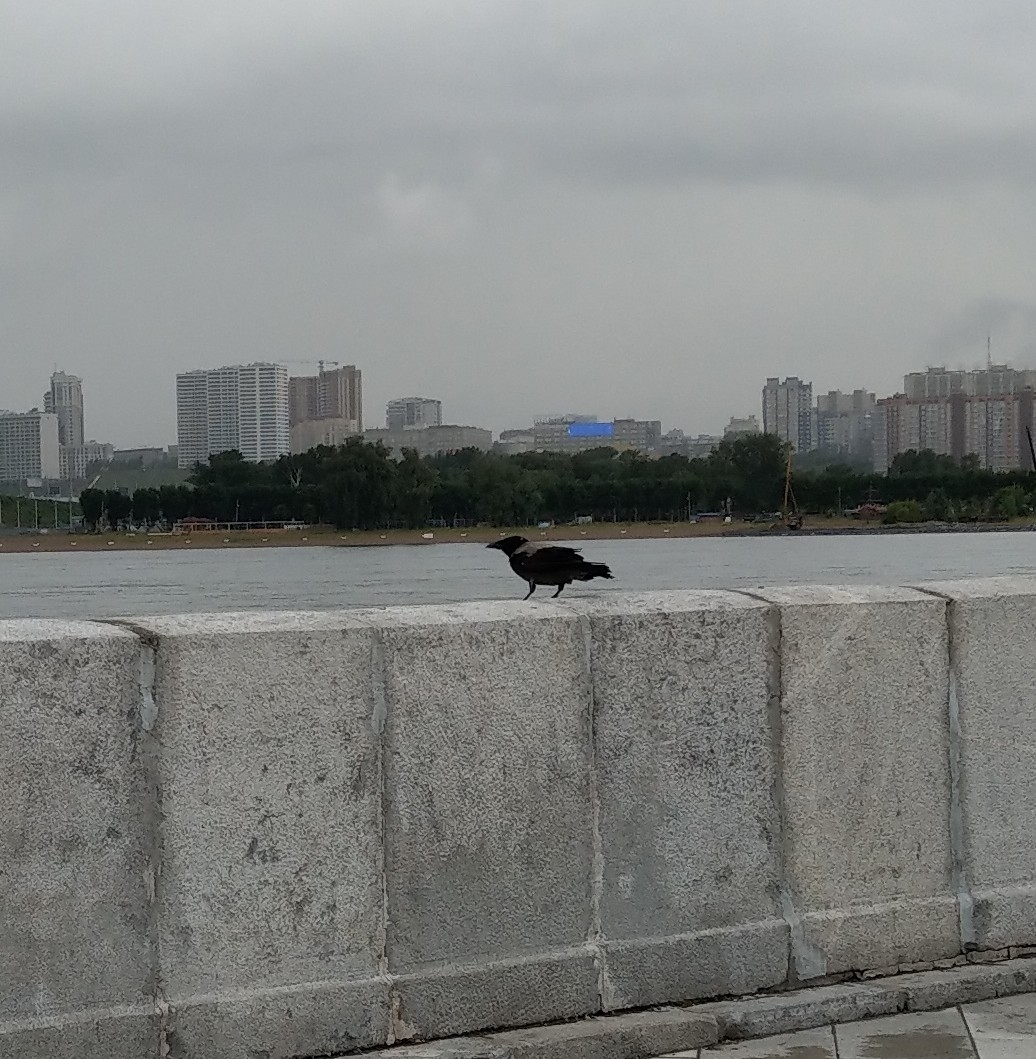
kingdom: Animalia
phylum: Chordata
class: Aves
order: Passeriformes
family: Corvidae
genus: Corvus
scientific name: Corvus cornix
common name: Hooded crow
